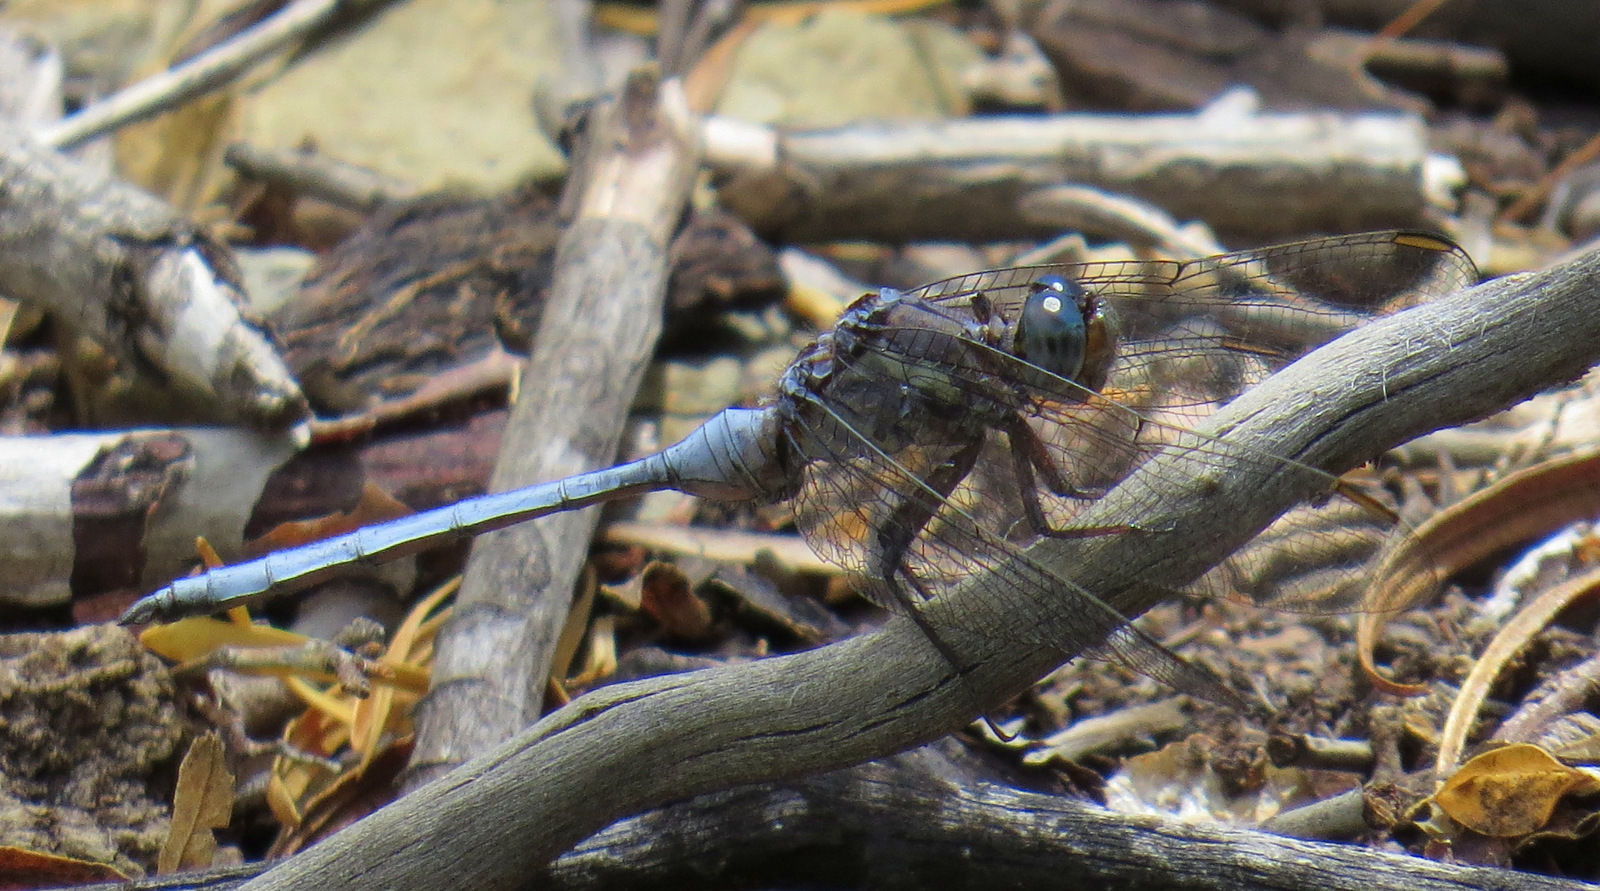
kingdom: Animalia
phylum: Arthropoda
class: Insecta
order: Odonata
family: Libellulidae
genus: Orthetrum
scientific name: Orthetrum julia
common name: Julia skimmer
